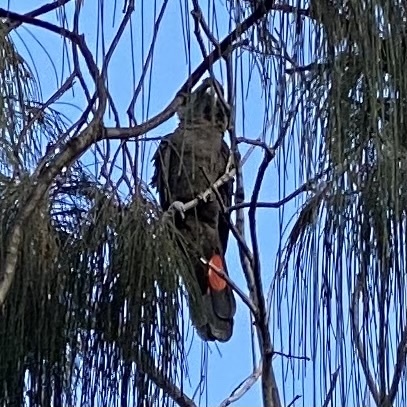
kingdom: Animalia
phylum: Chordata
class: Aves
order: Psittaciformes
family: Psittacidae
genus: Calyptorhynchus
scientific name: Calyptorhynchus banksii
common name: Red-tailed black cockatoo
